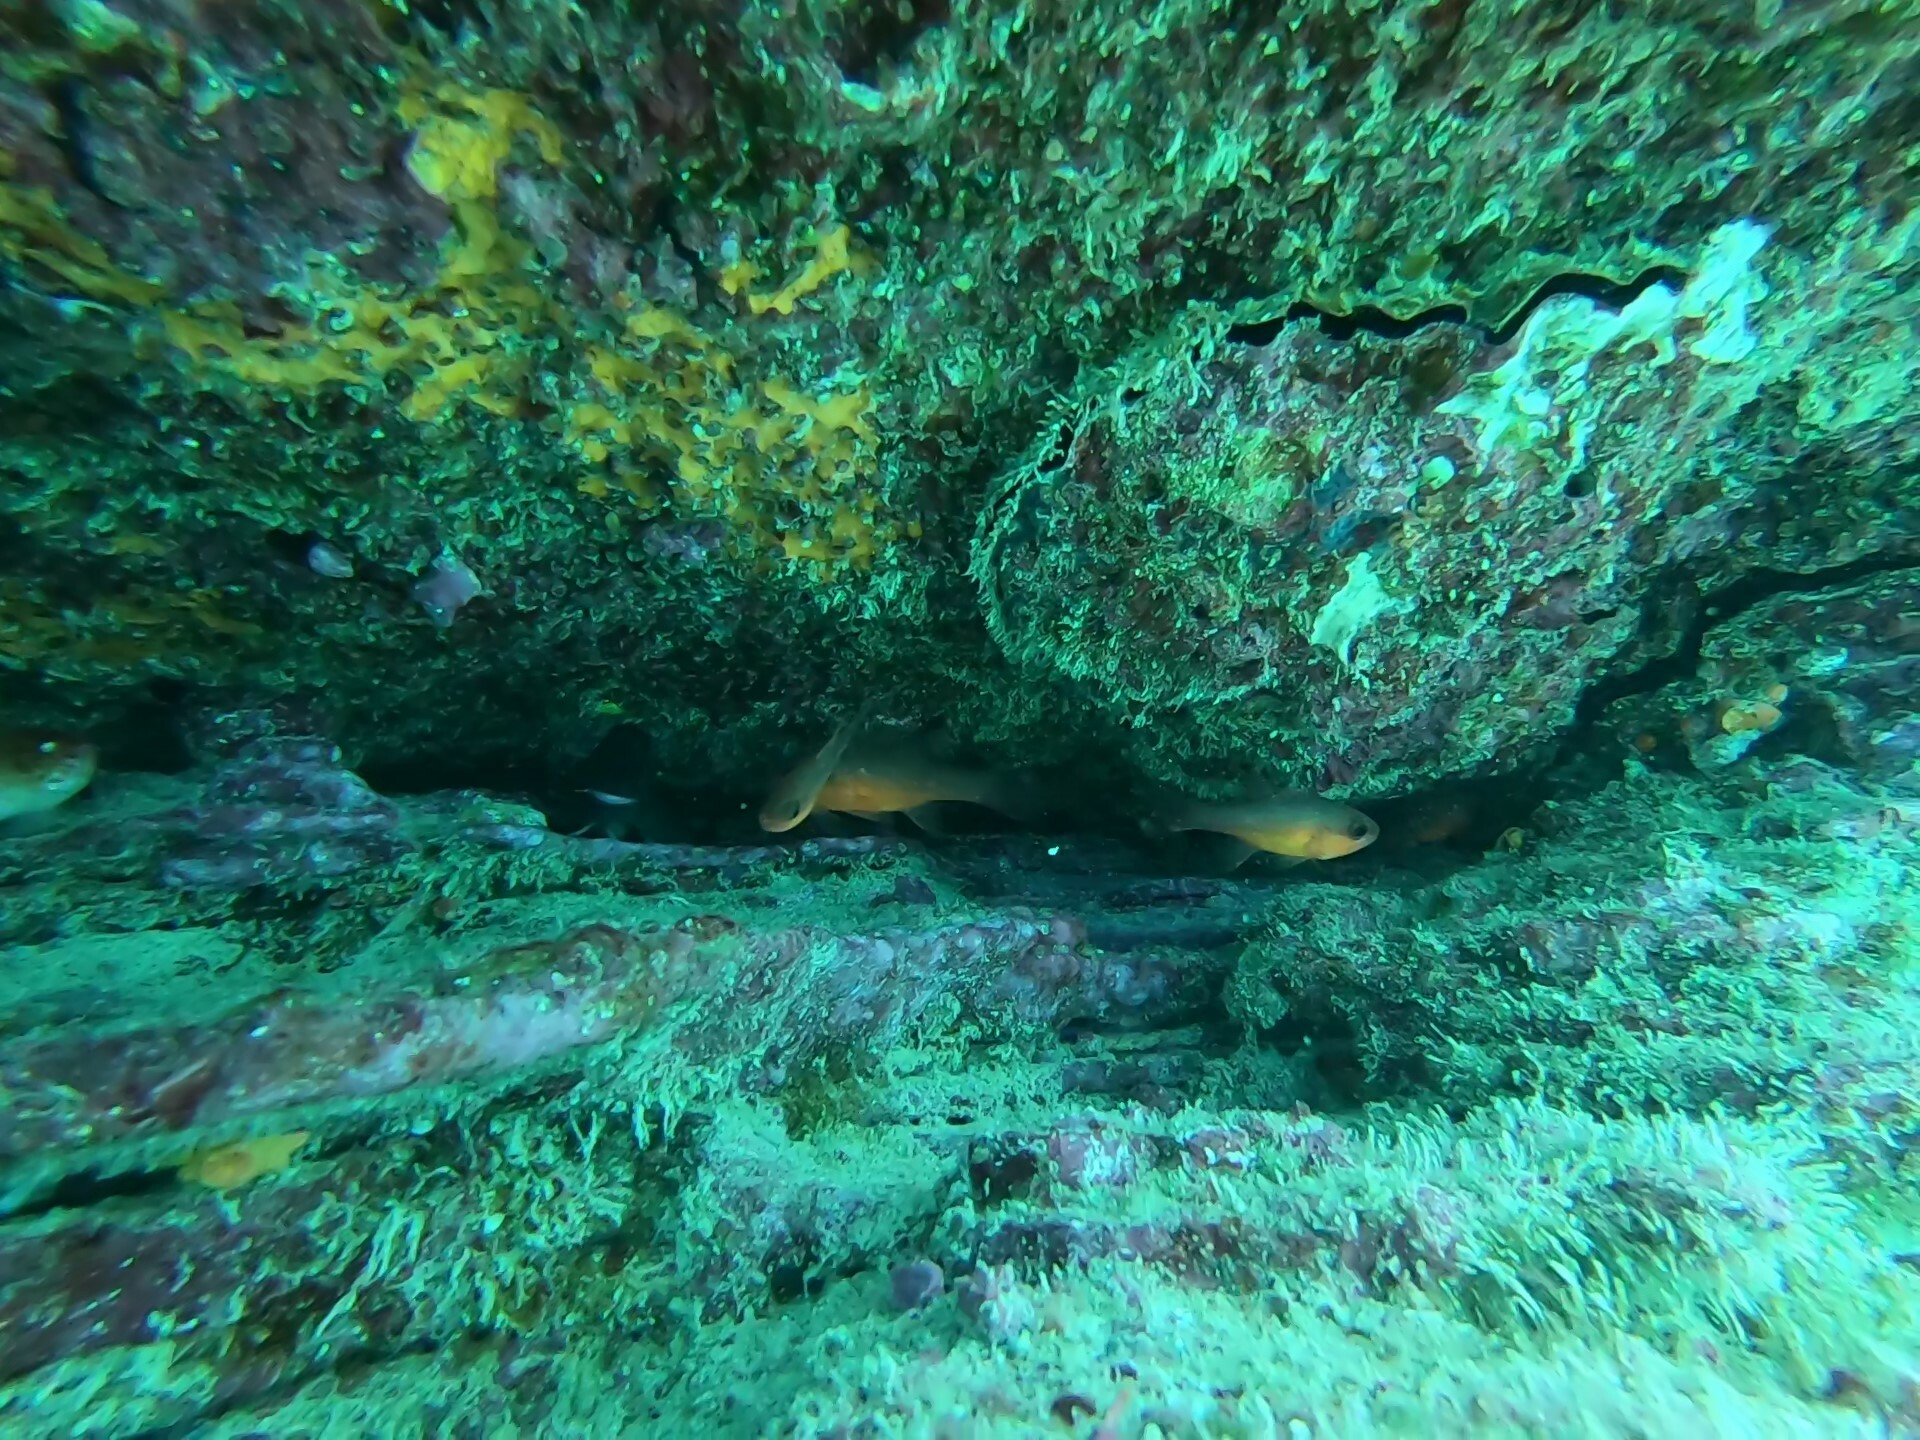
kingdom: Animalia
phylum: Chordata
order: Perciformes
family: Apogonidae
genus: Apogon
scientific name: Apogon atradorsatus
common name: Blacktip cardinalfish
